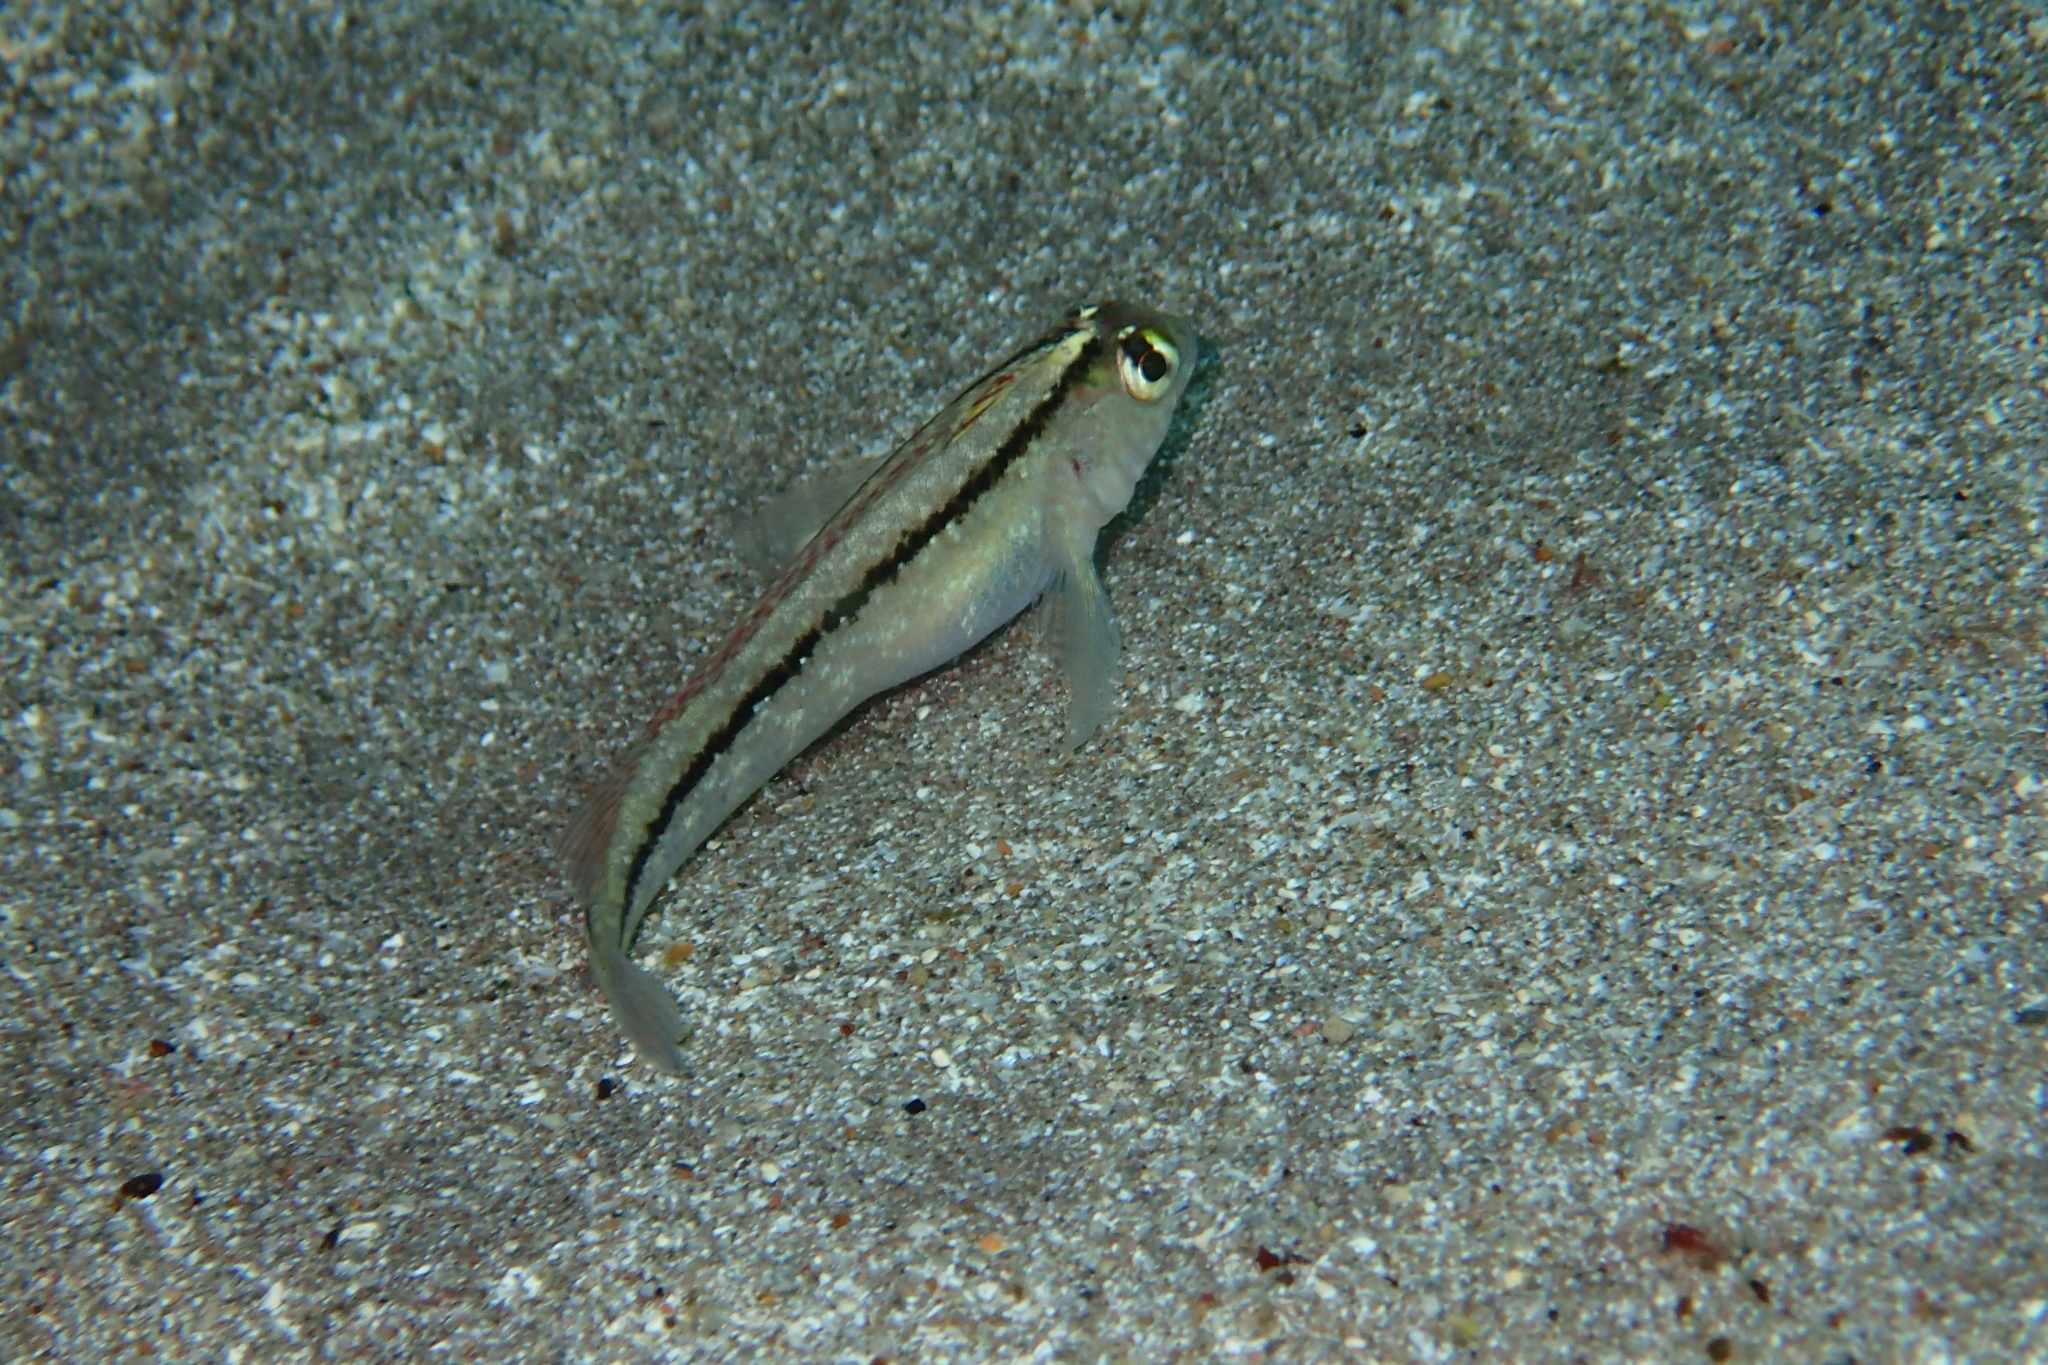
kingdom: Animalia
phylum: Chordata
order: Perciformes
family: Tripterygiidae
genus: Forsterygion
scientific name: Forsterygion lapillum
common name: Common triplefin
